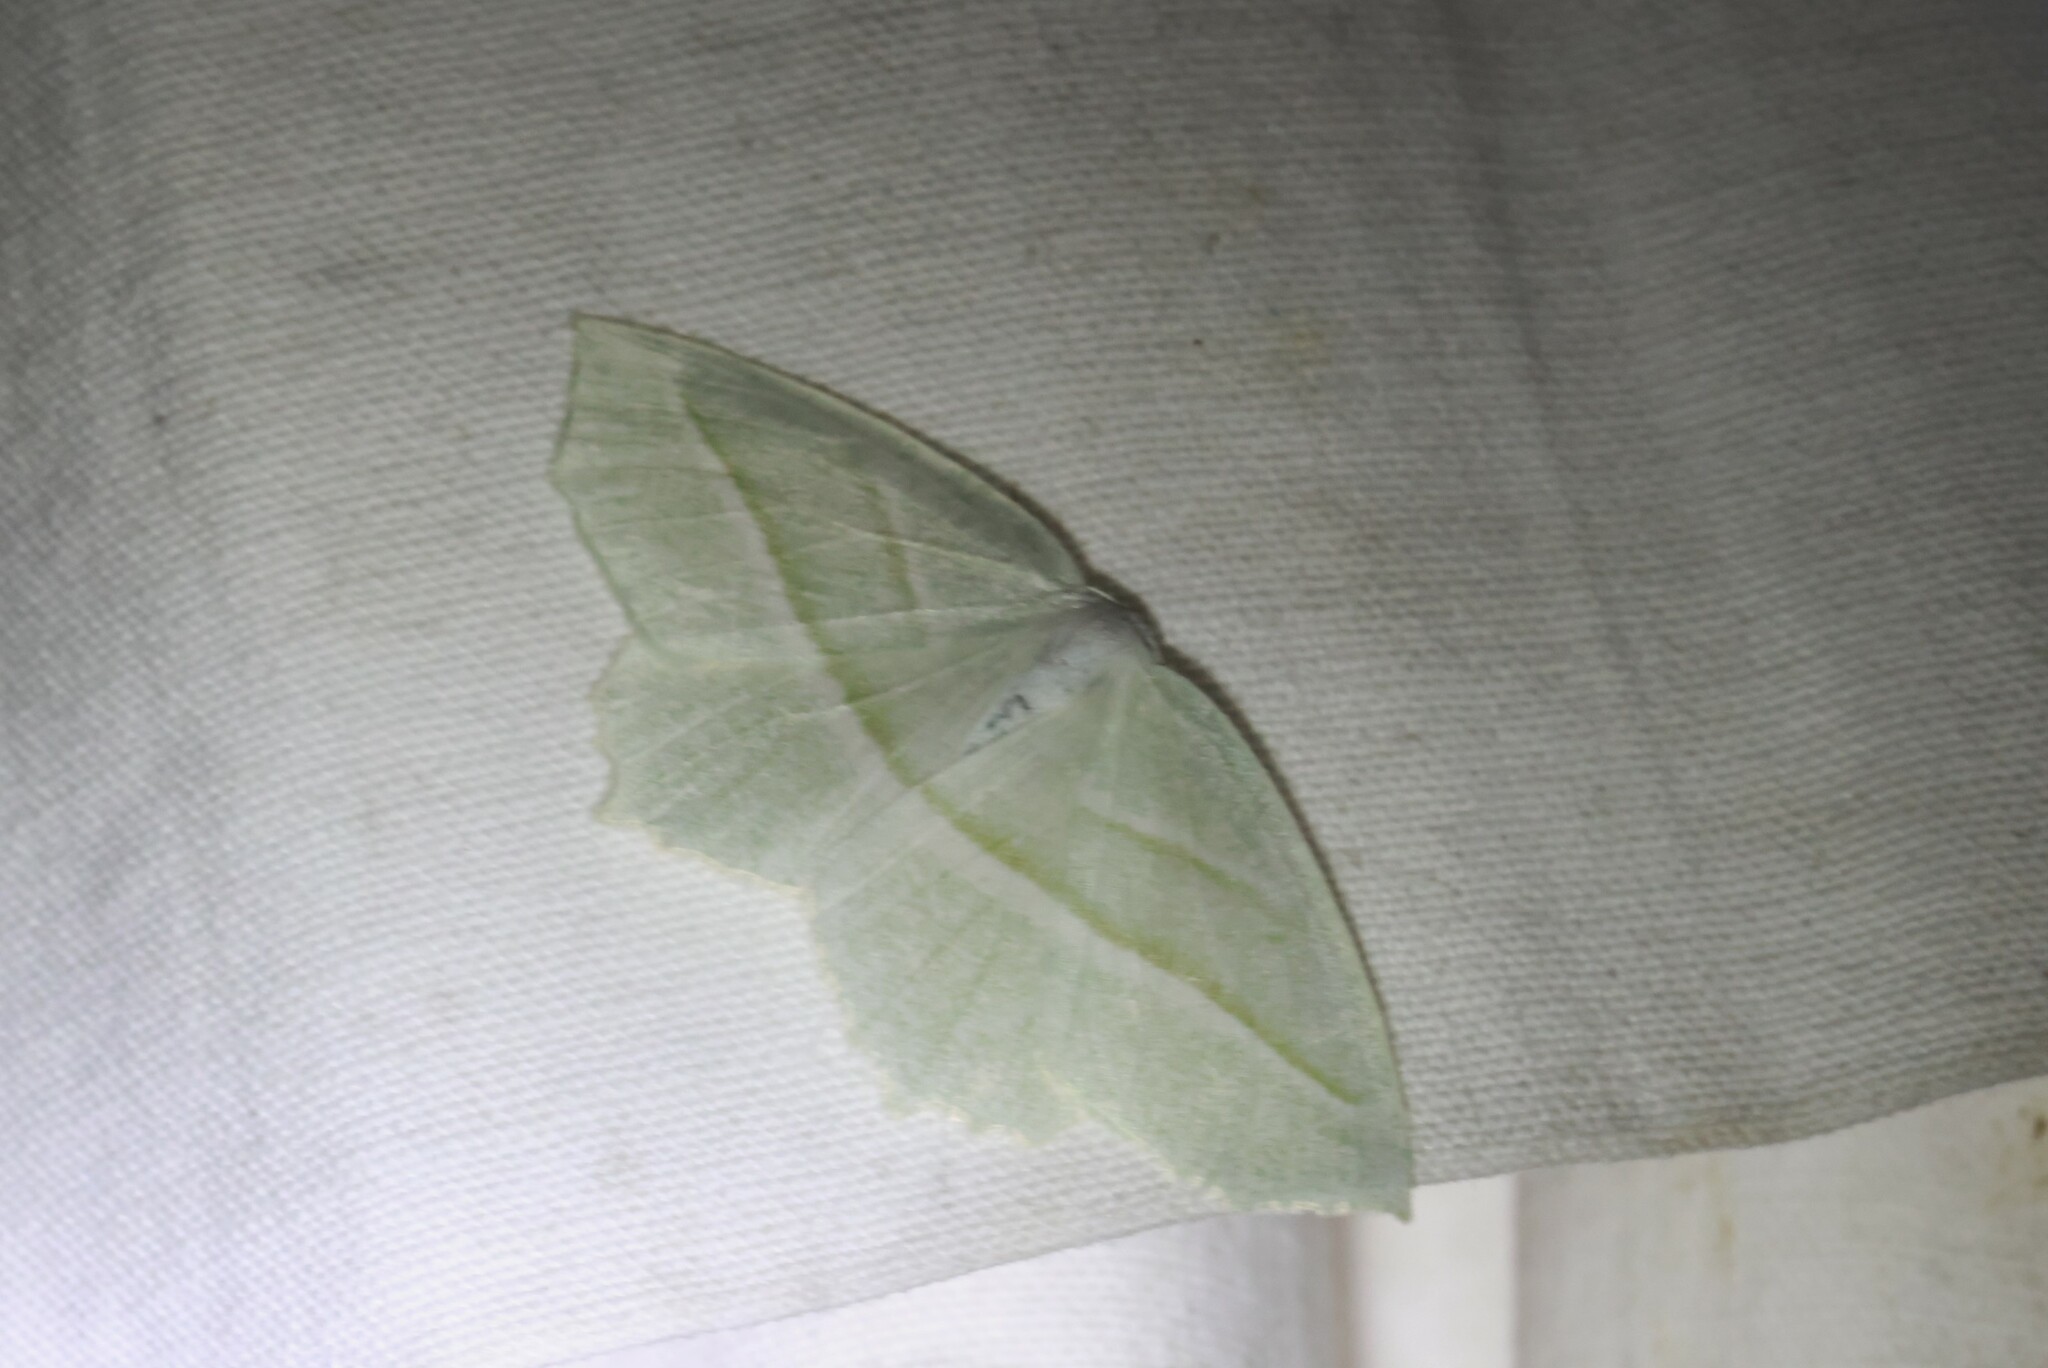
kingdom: Animalia
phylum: Arthropoda
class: Insecta
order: Lepidoptera
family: Geometridae
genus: Campaea
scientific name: Campaea perlata
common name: Fringed looper
